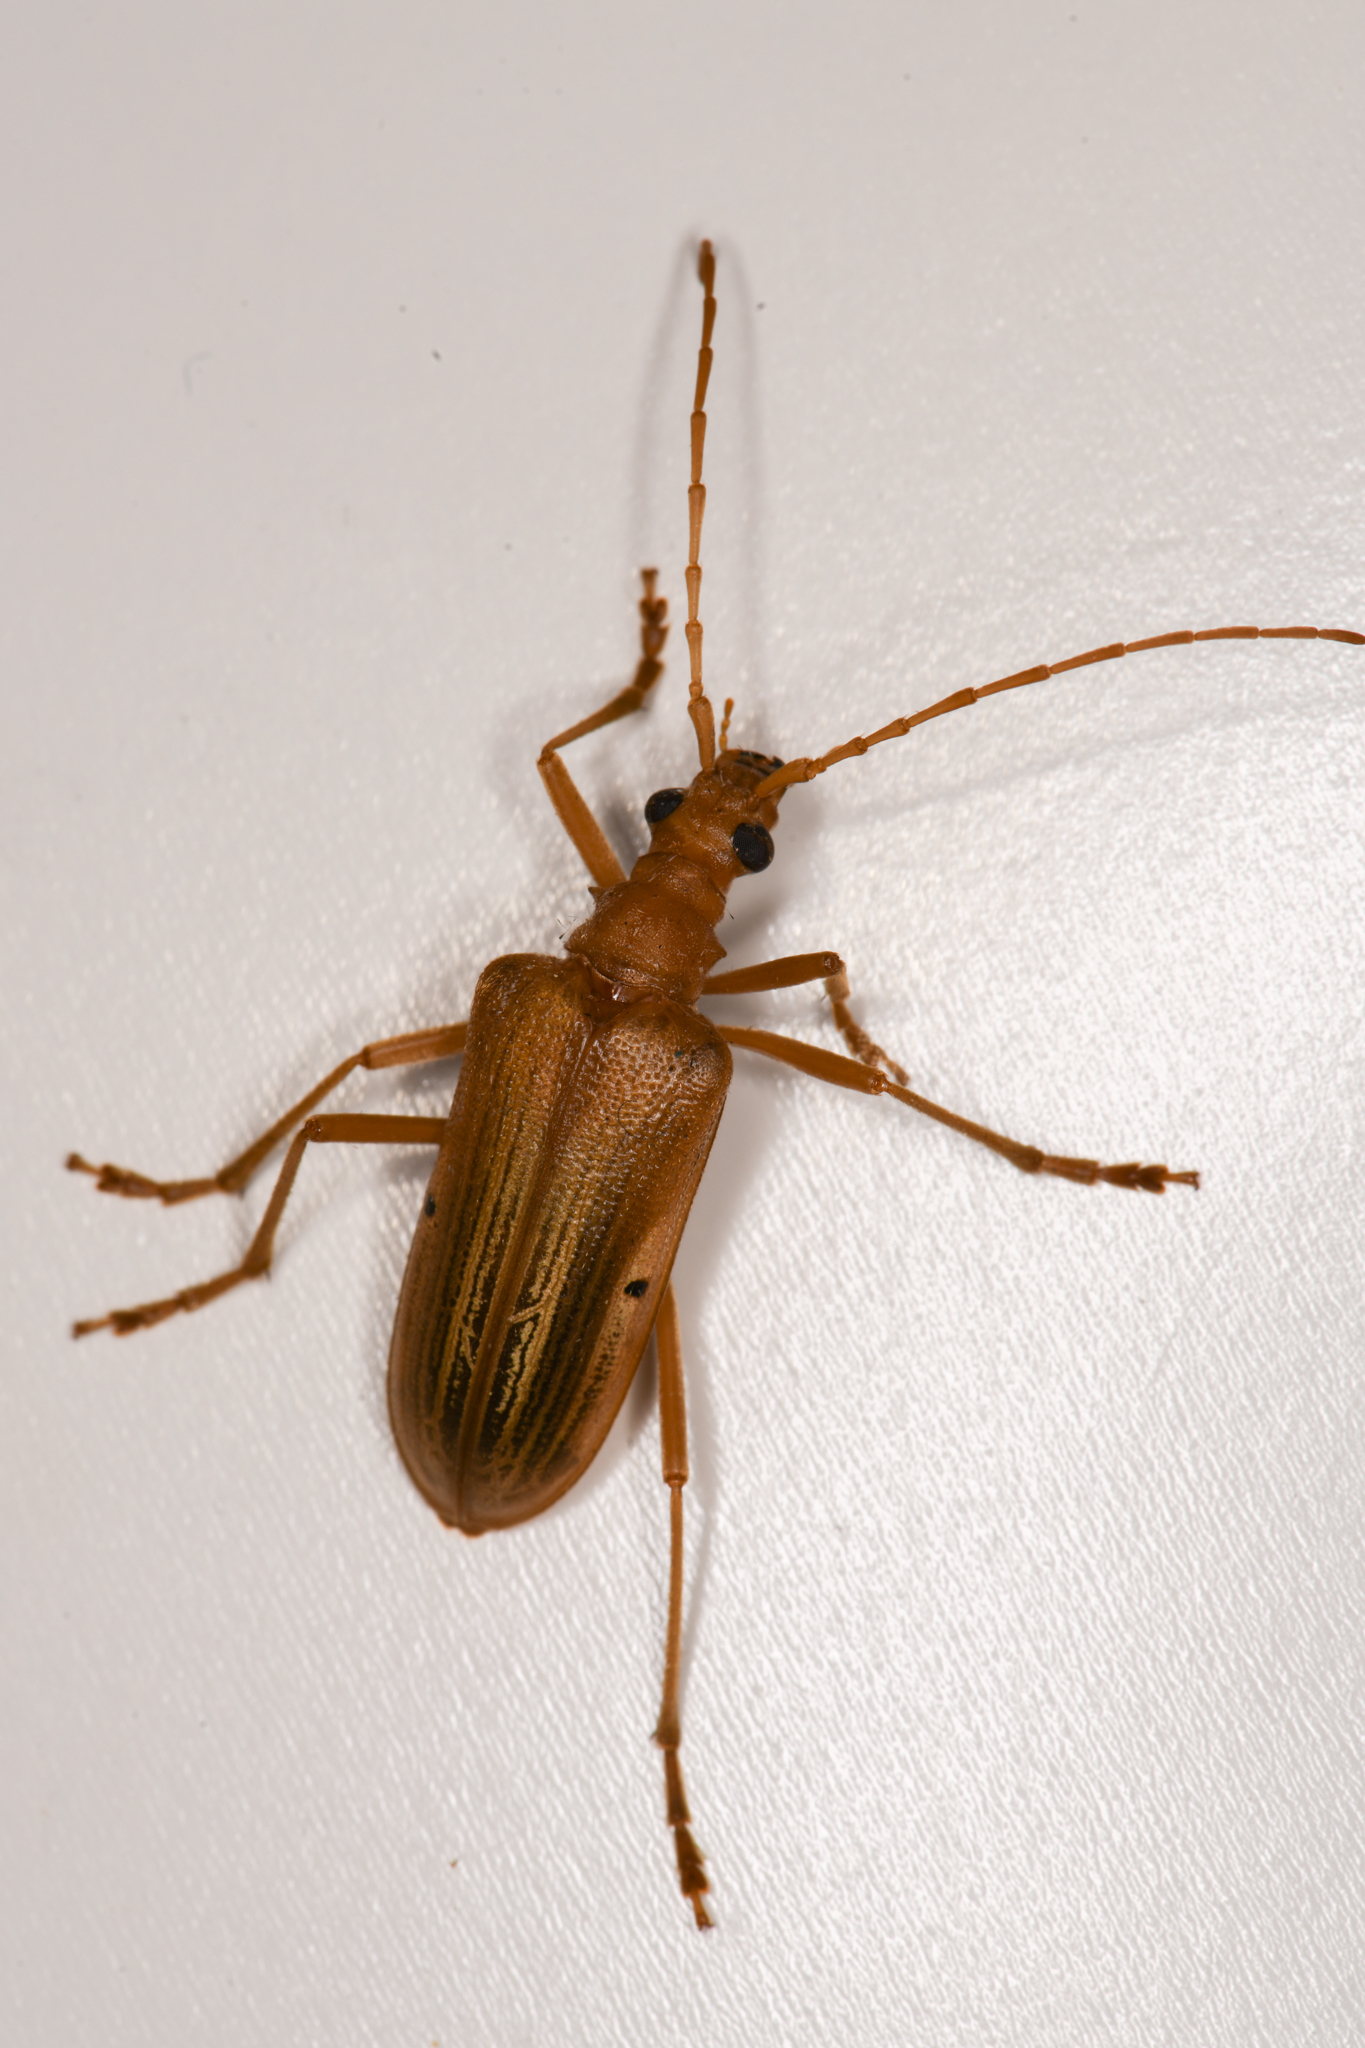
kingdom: Animalia
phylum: Arthropoda
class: Insecta
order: Coleoptera
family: Cerambycidae
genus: Centrodera
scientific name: Centrodera spurca
